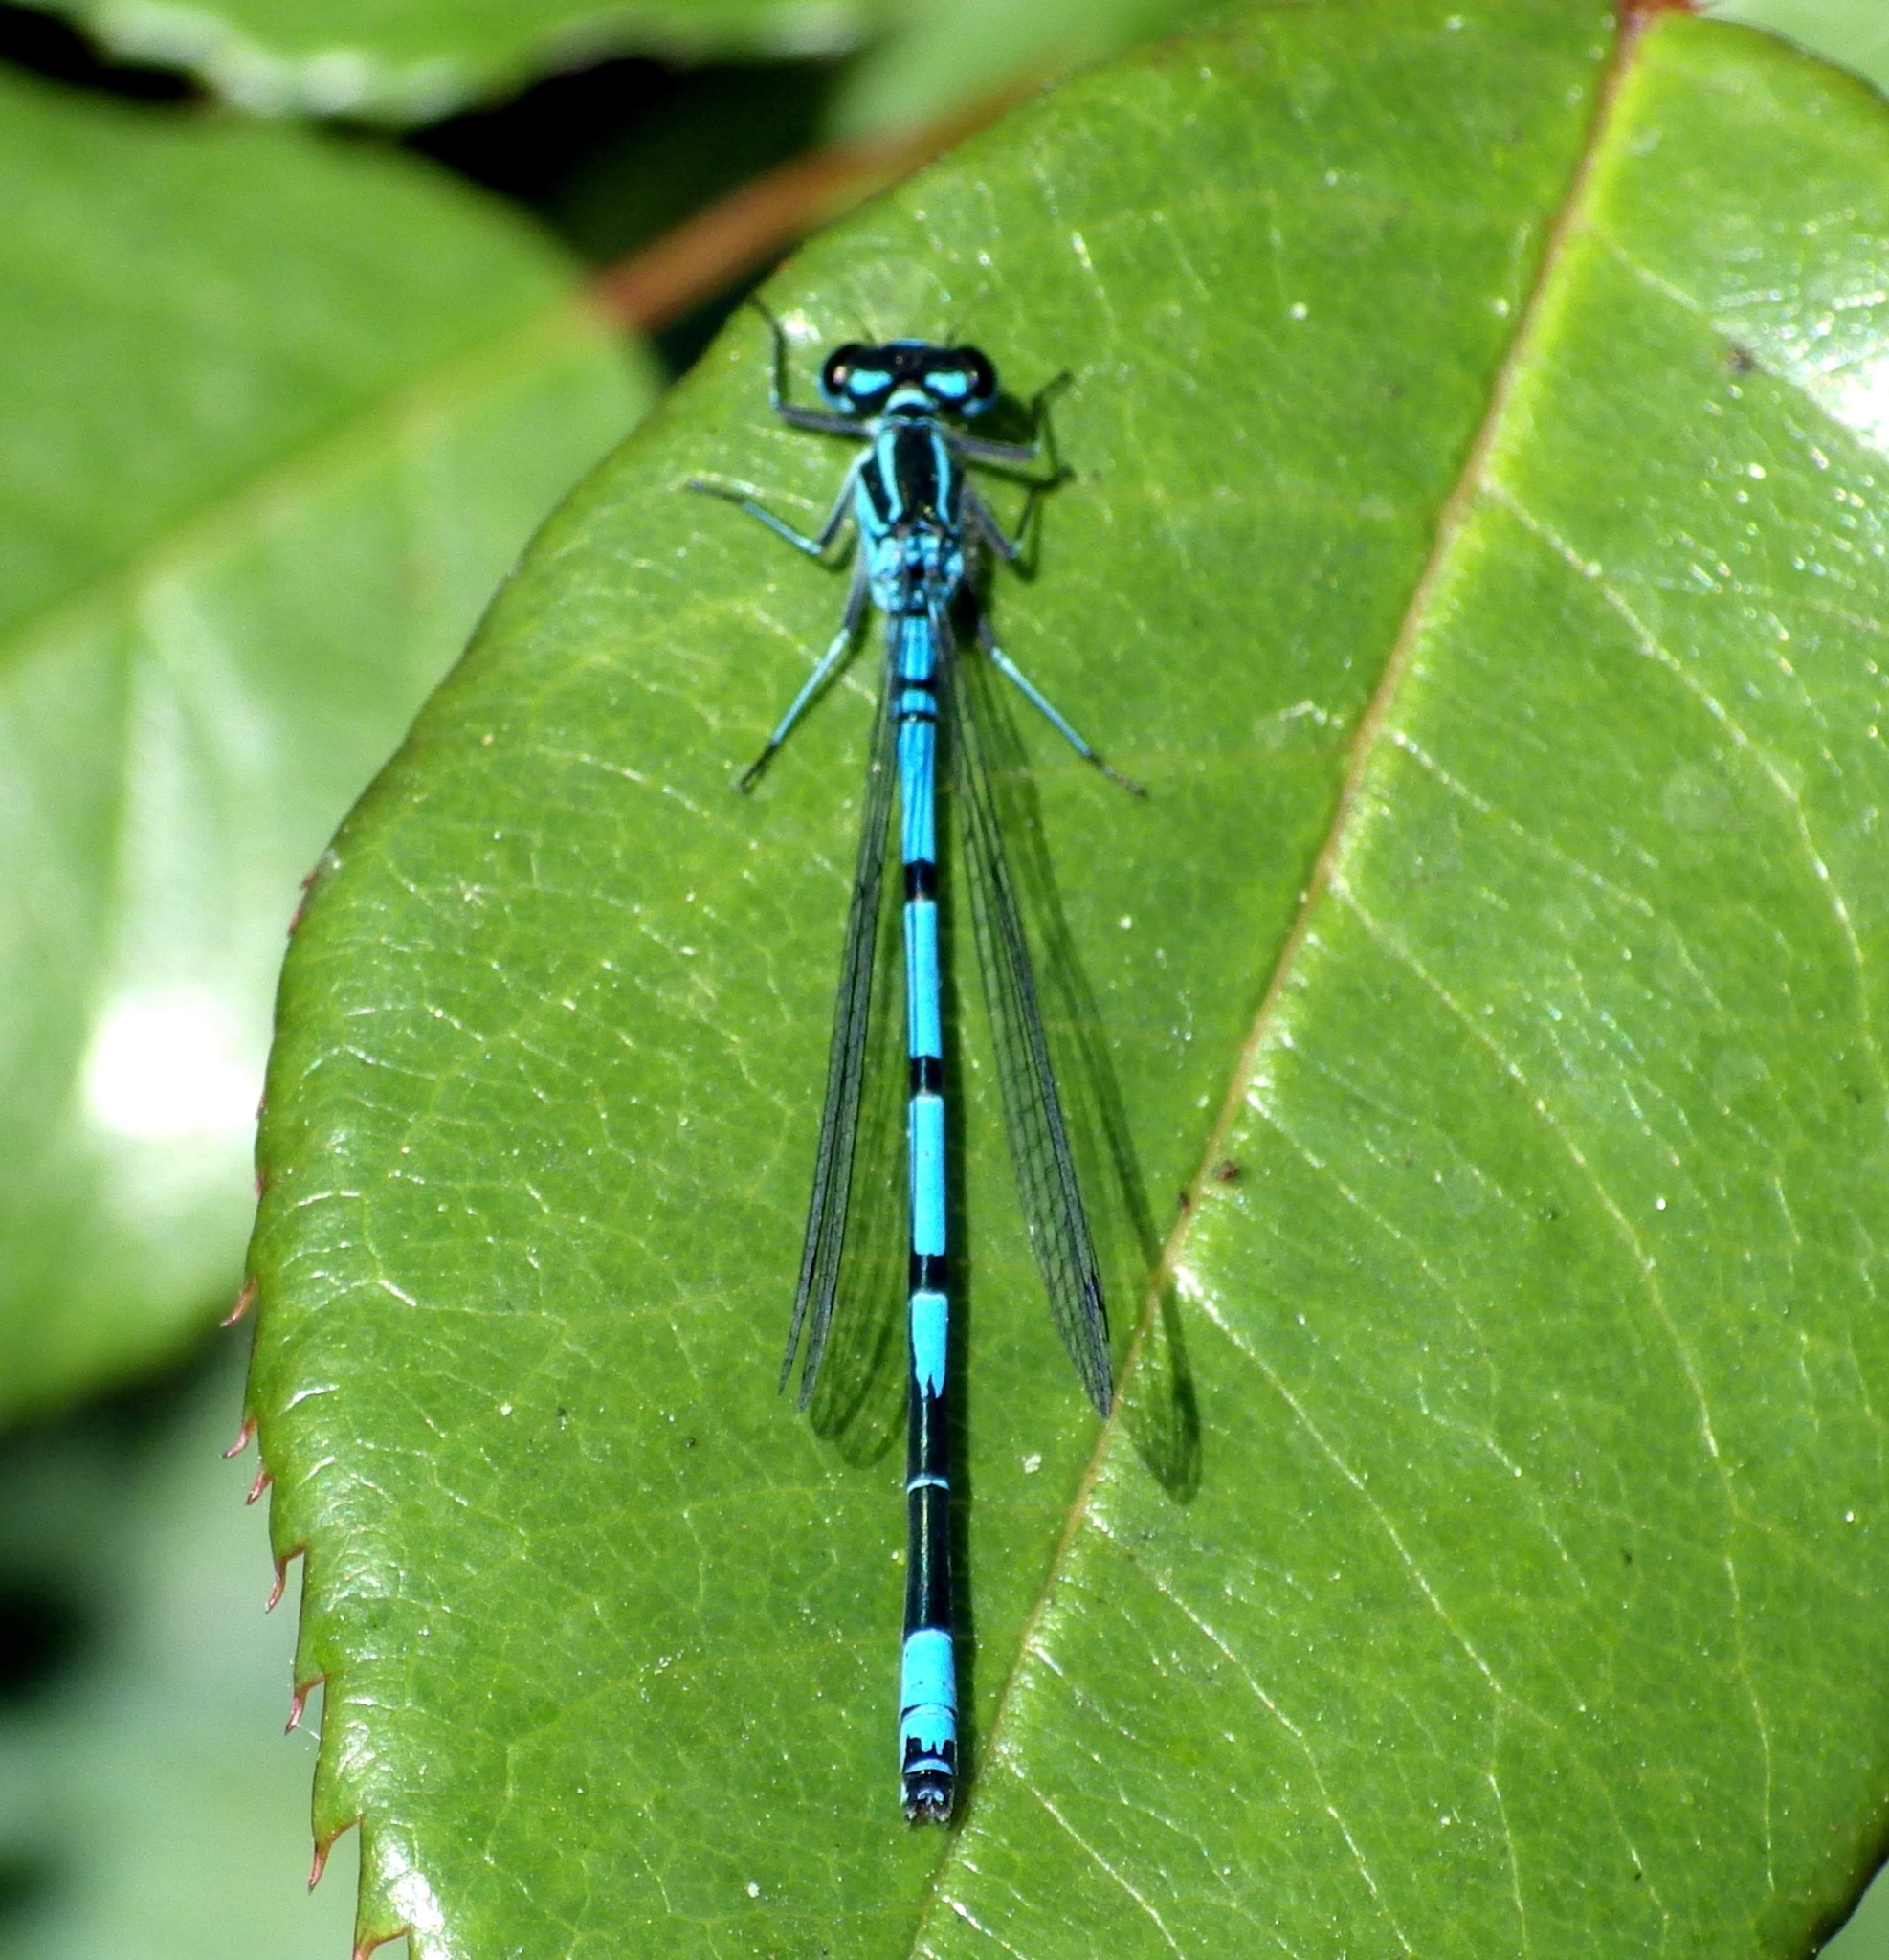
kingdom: Animalia
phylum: Arthropoda
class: Insecta
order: Odonata
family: Coenagrionidae
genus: Coenagrion
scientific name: Coenagrion puella
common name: Azure damselfly
